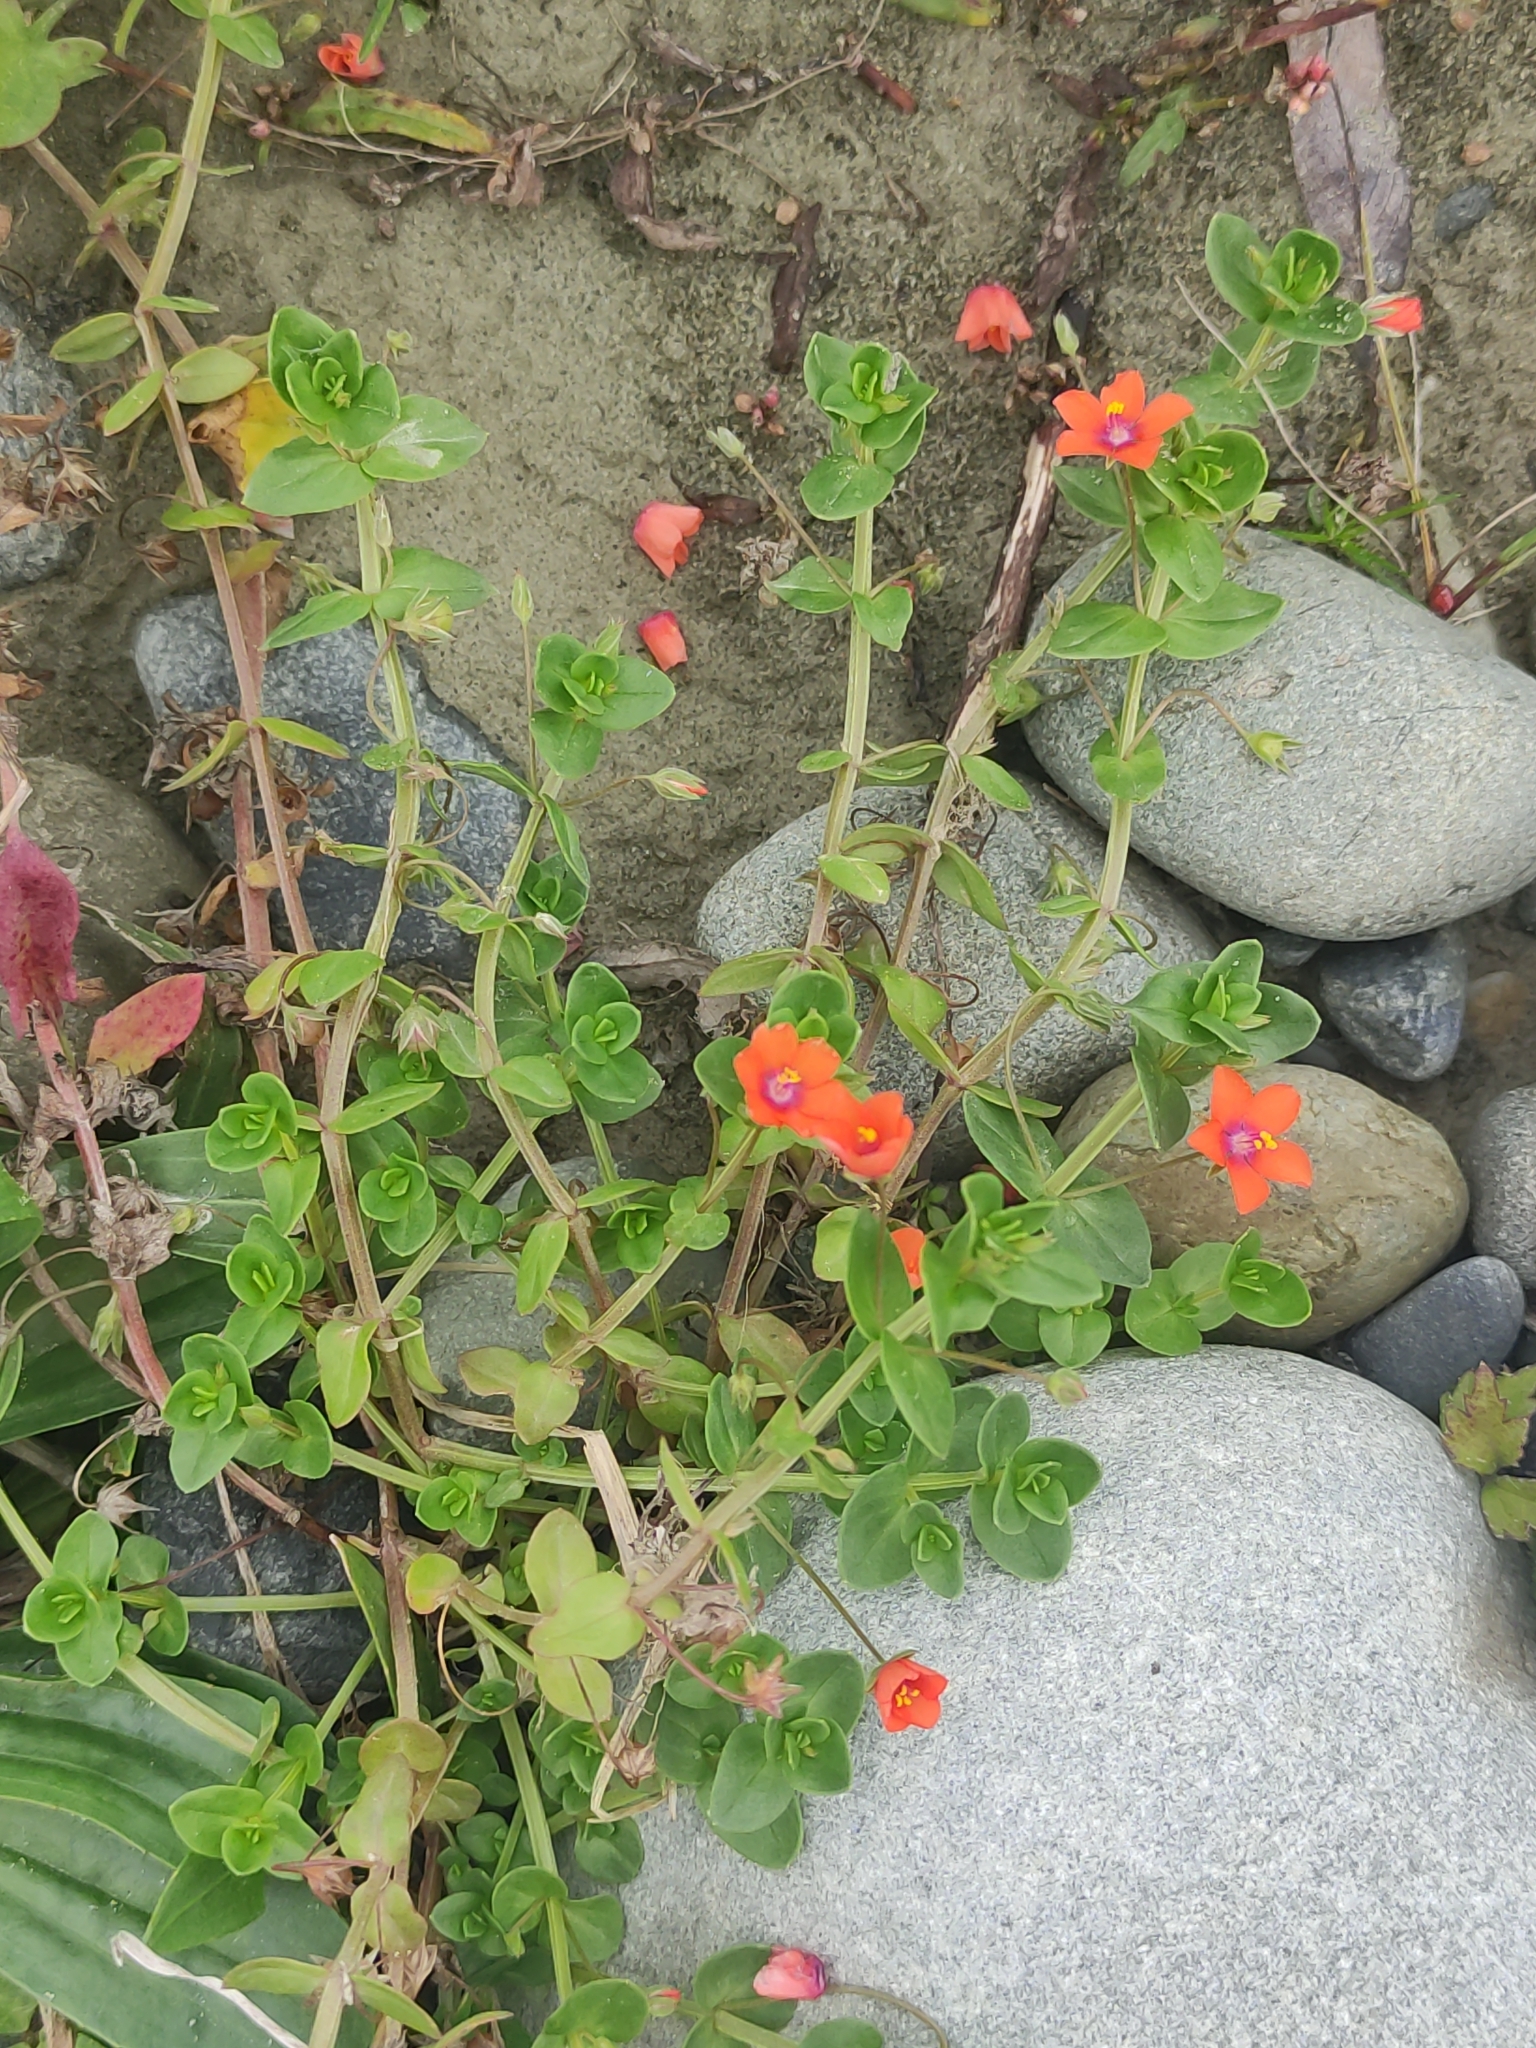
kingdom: Plantae
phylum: Tracheophyta
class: Magnoliopsida
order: Ericales
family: Primulaceae
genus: Lysimachia
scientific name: Lysimachia arvensis
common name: Scarlet pimpernel
